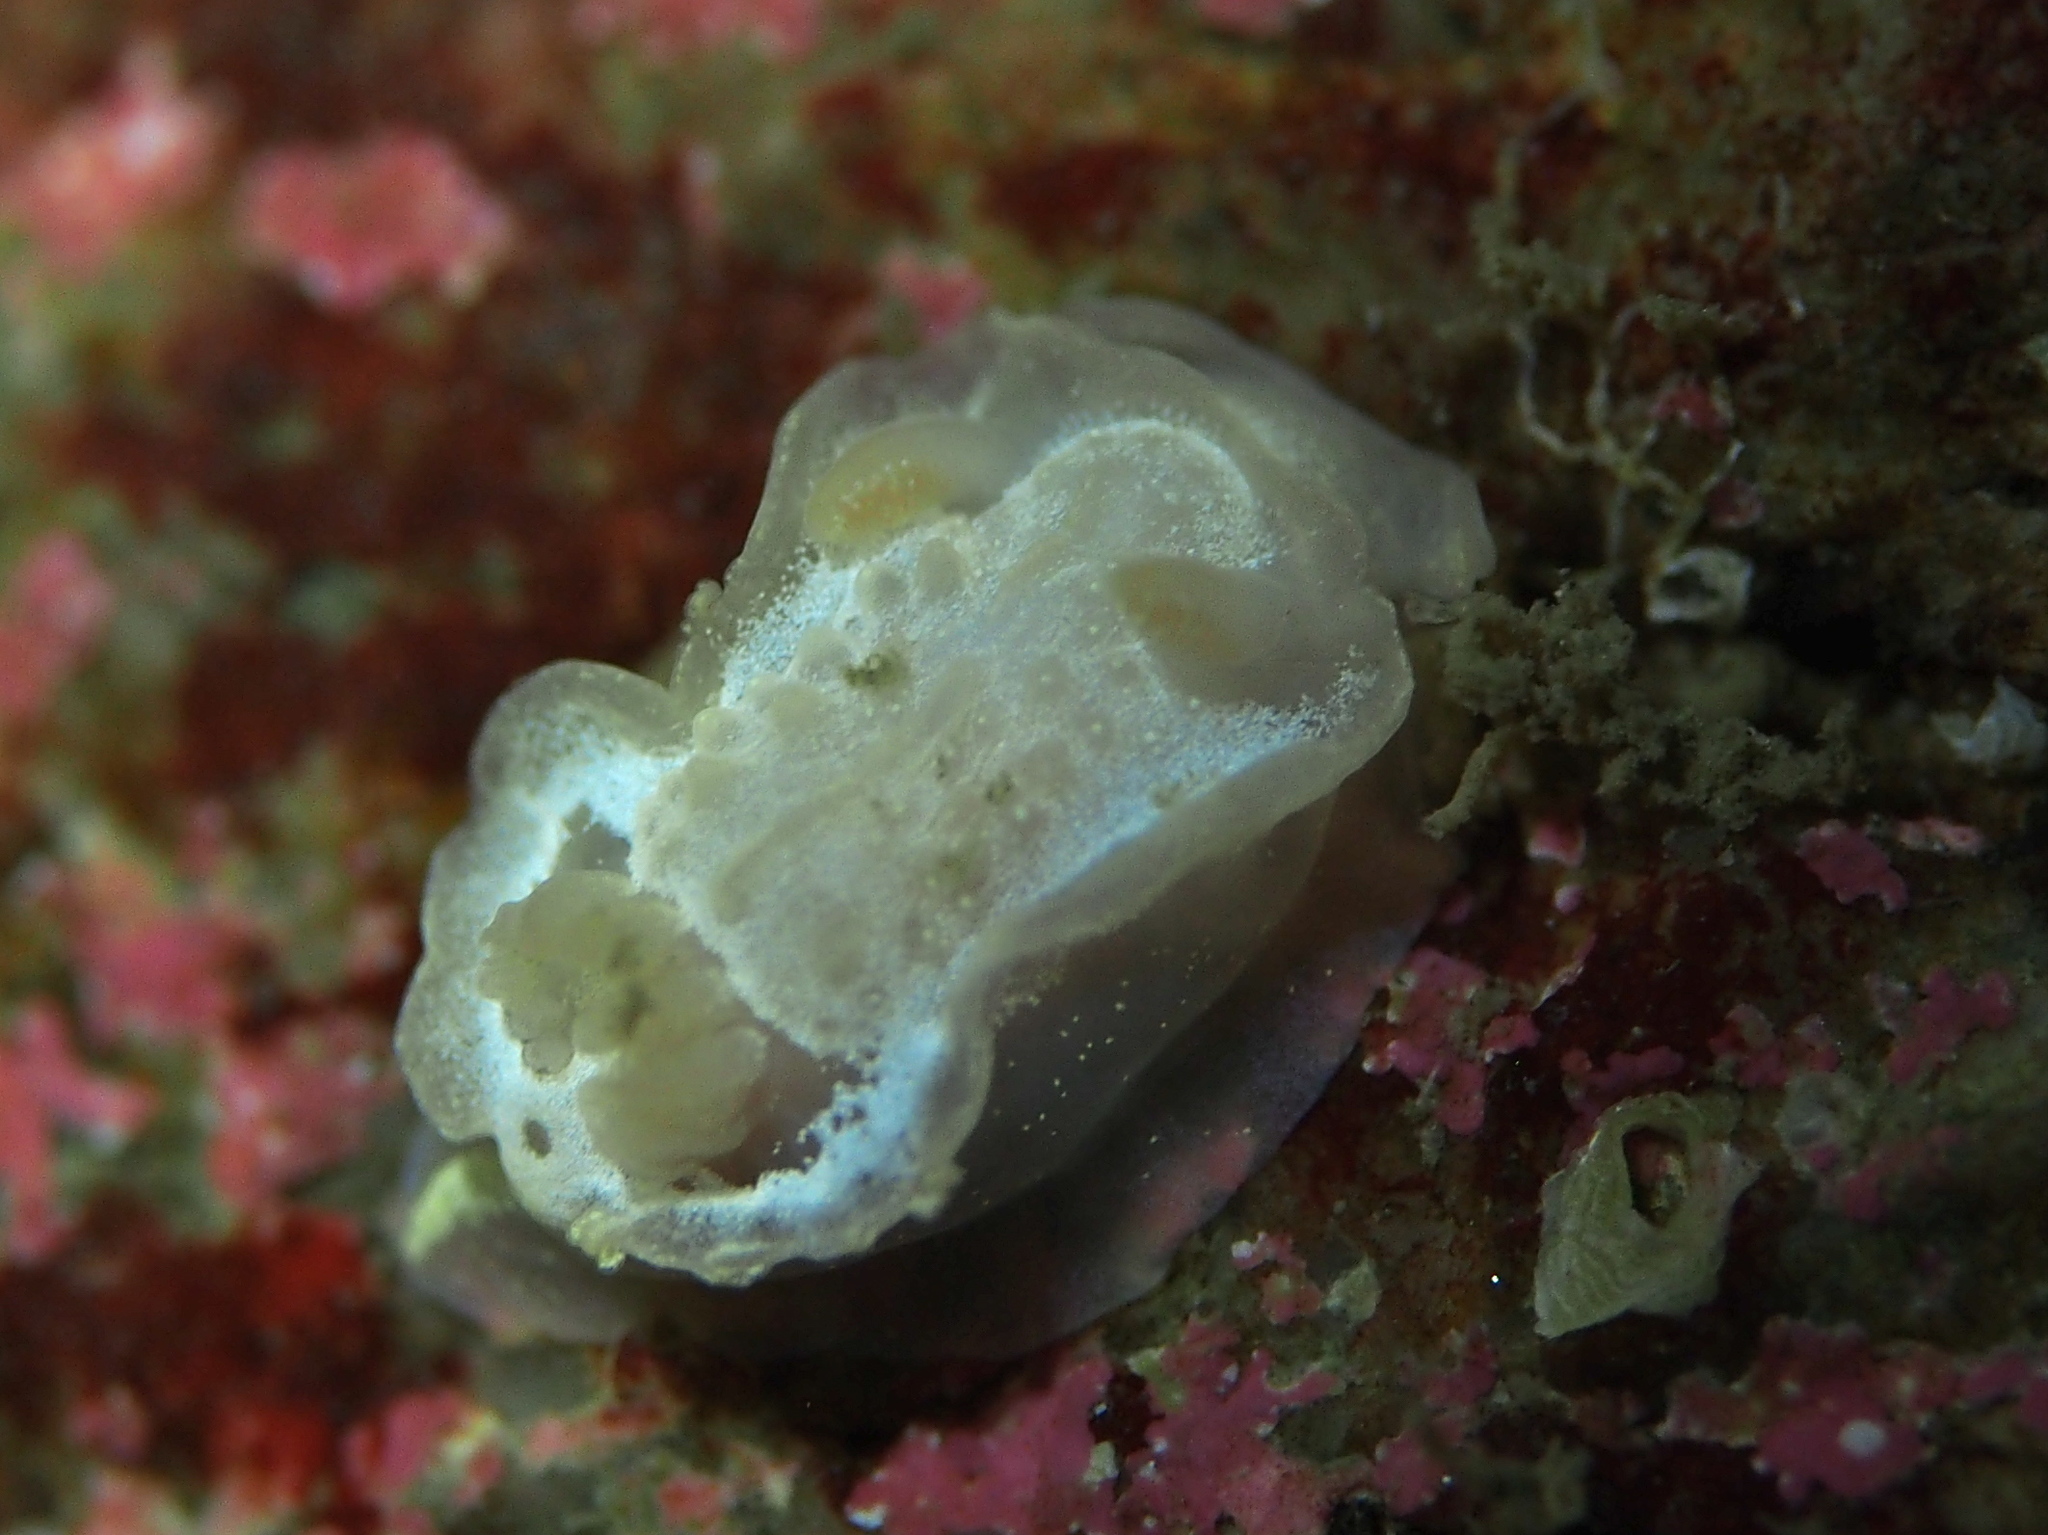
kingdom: Animalia
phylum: Mollusca
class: Gastropoda
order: Nudibranchia
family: Goniodorididae
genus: Okenia
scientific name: Okenia
